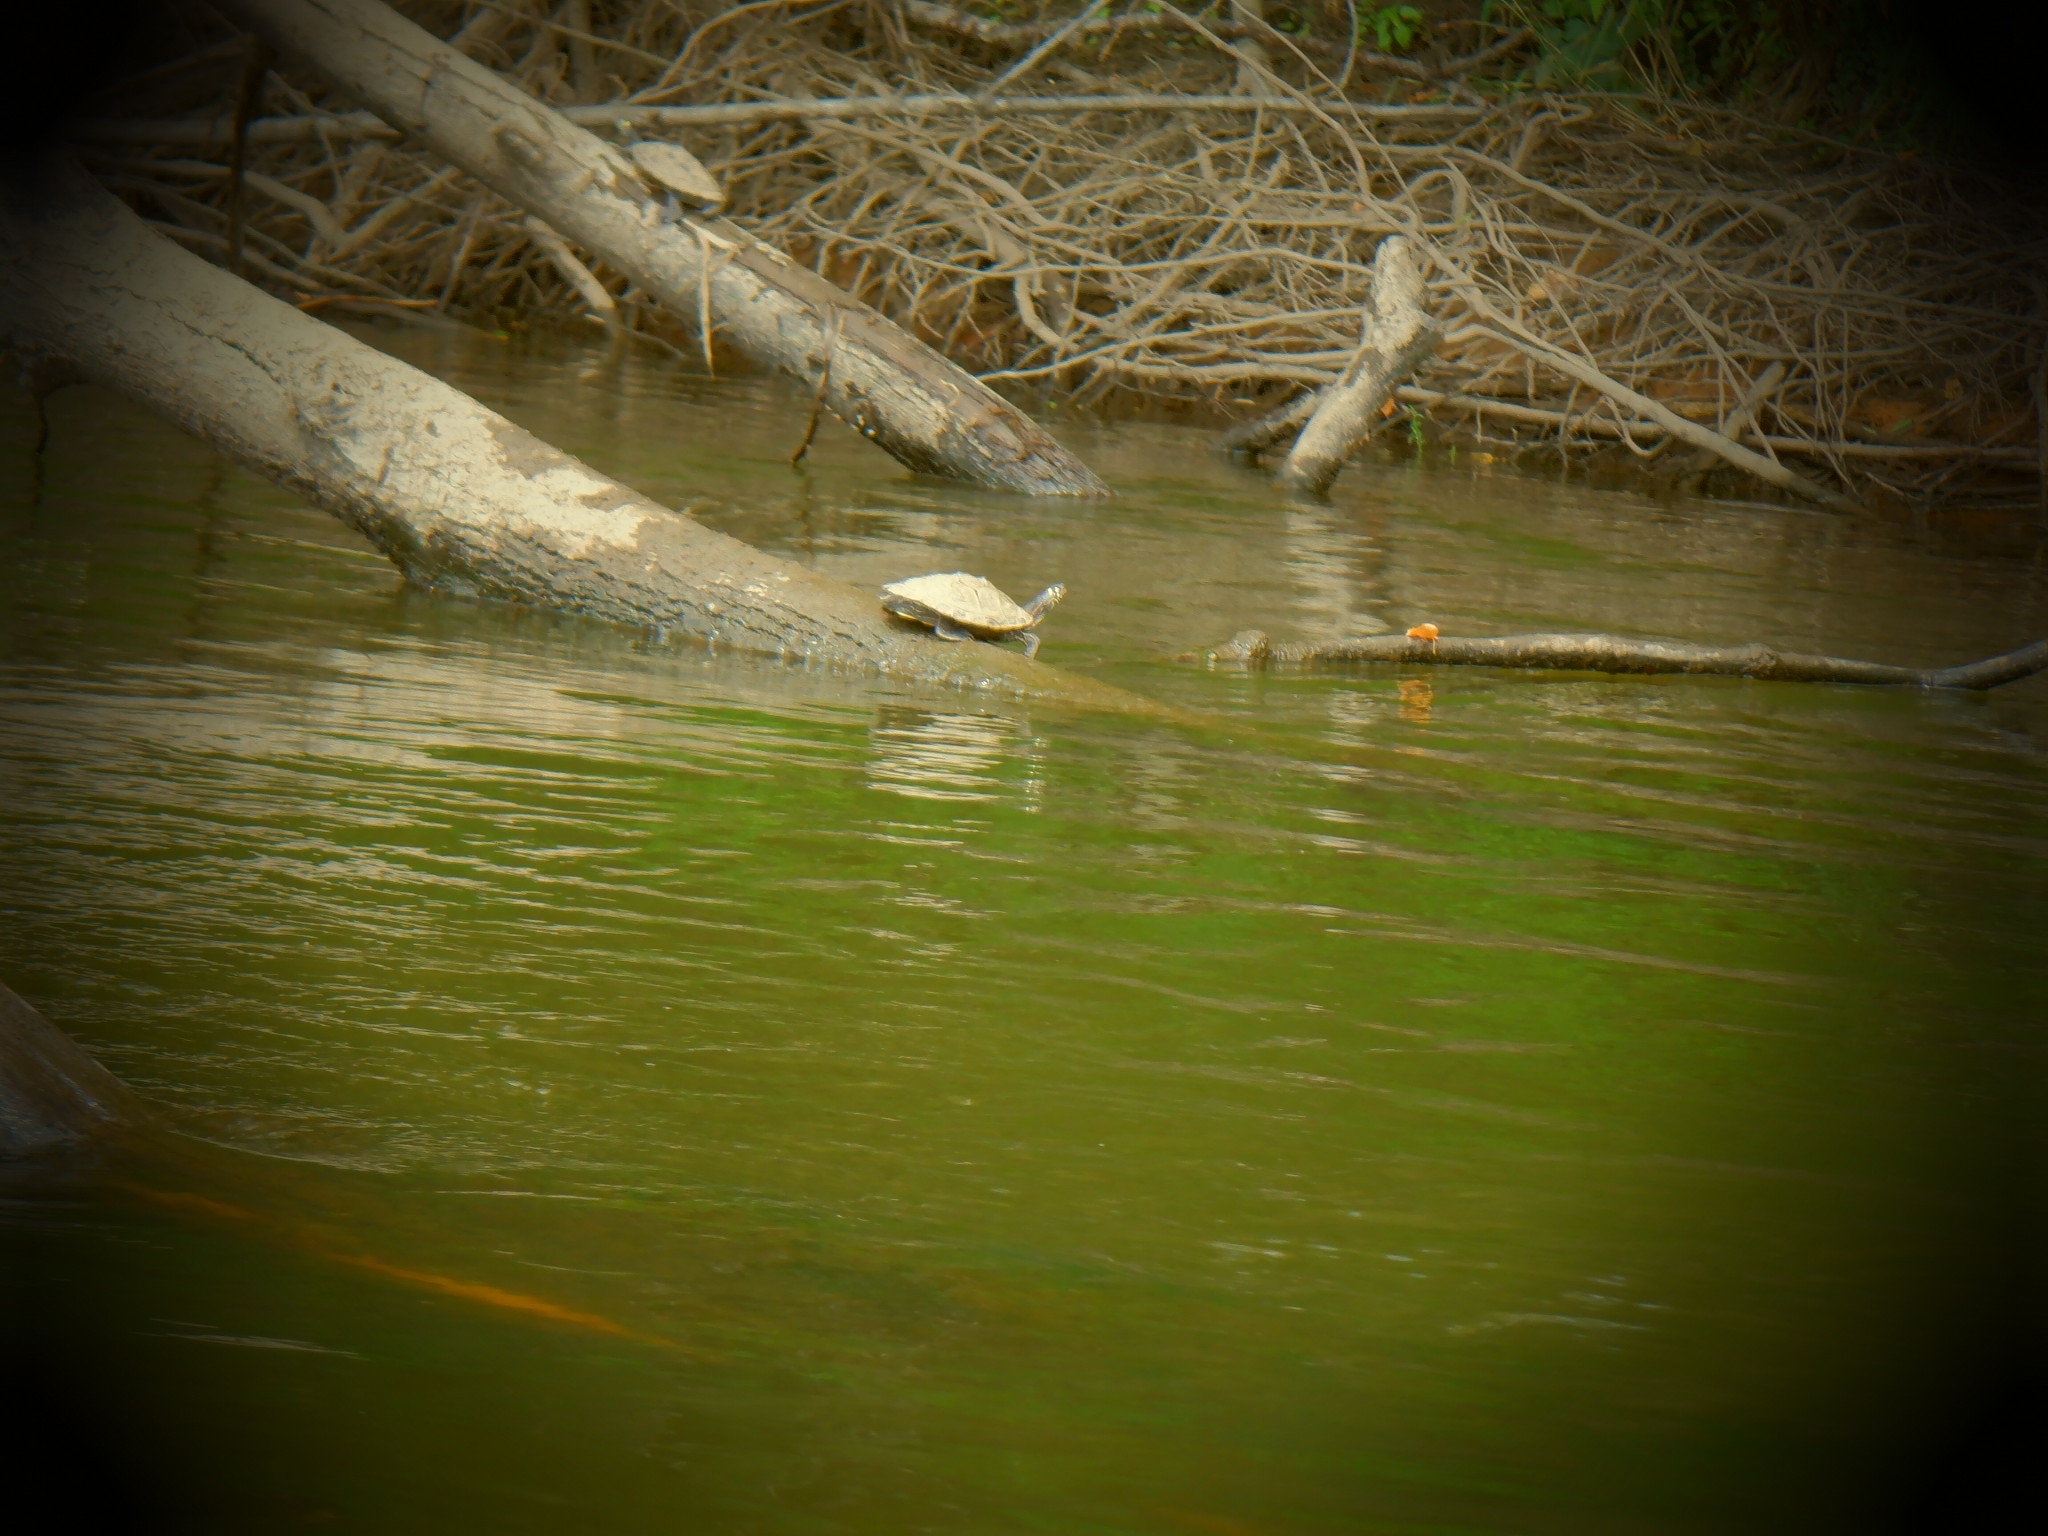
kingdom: Animalia
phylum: Chordata
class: Testudines
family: Emydidae
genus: Graptemys
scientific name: Graptemys ouachitensis
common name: Ouachita map turtle
